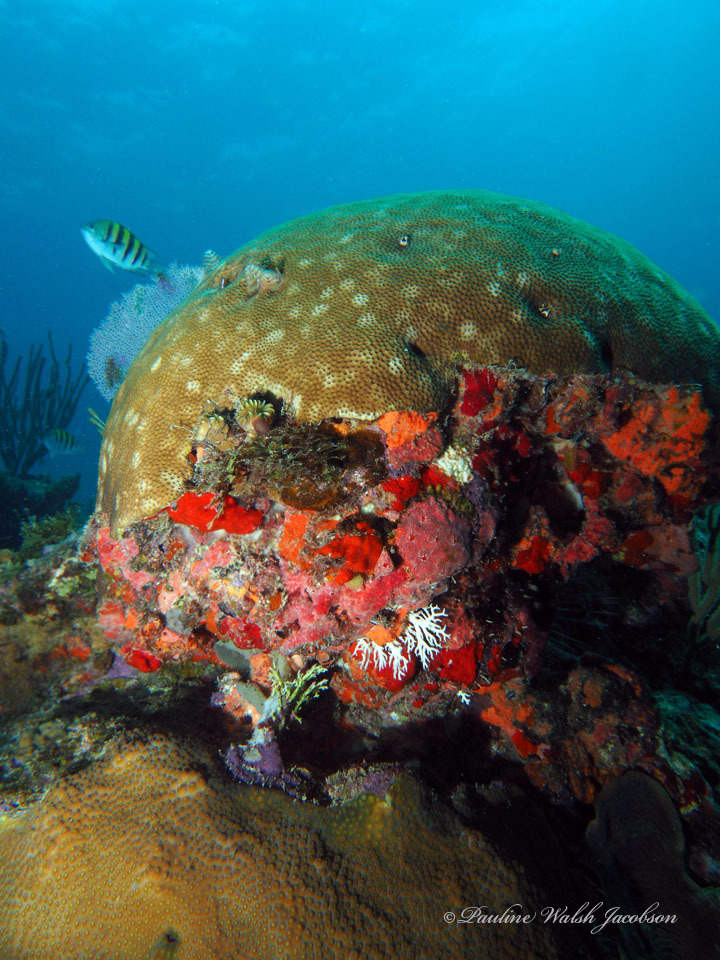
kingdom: Animalia
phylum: Cnidaria
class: Anthozoa
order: Scleractinia
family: Rhizangiidae
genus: Siderastrea
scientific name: Siderastrea siderea
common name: Massive starlet coral
